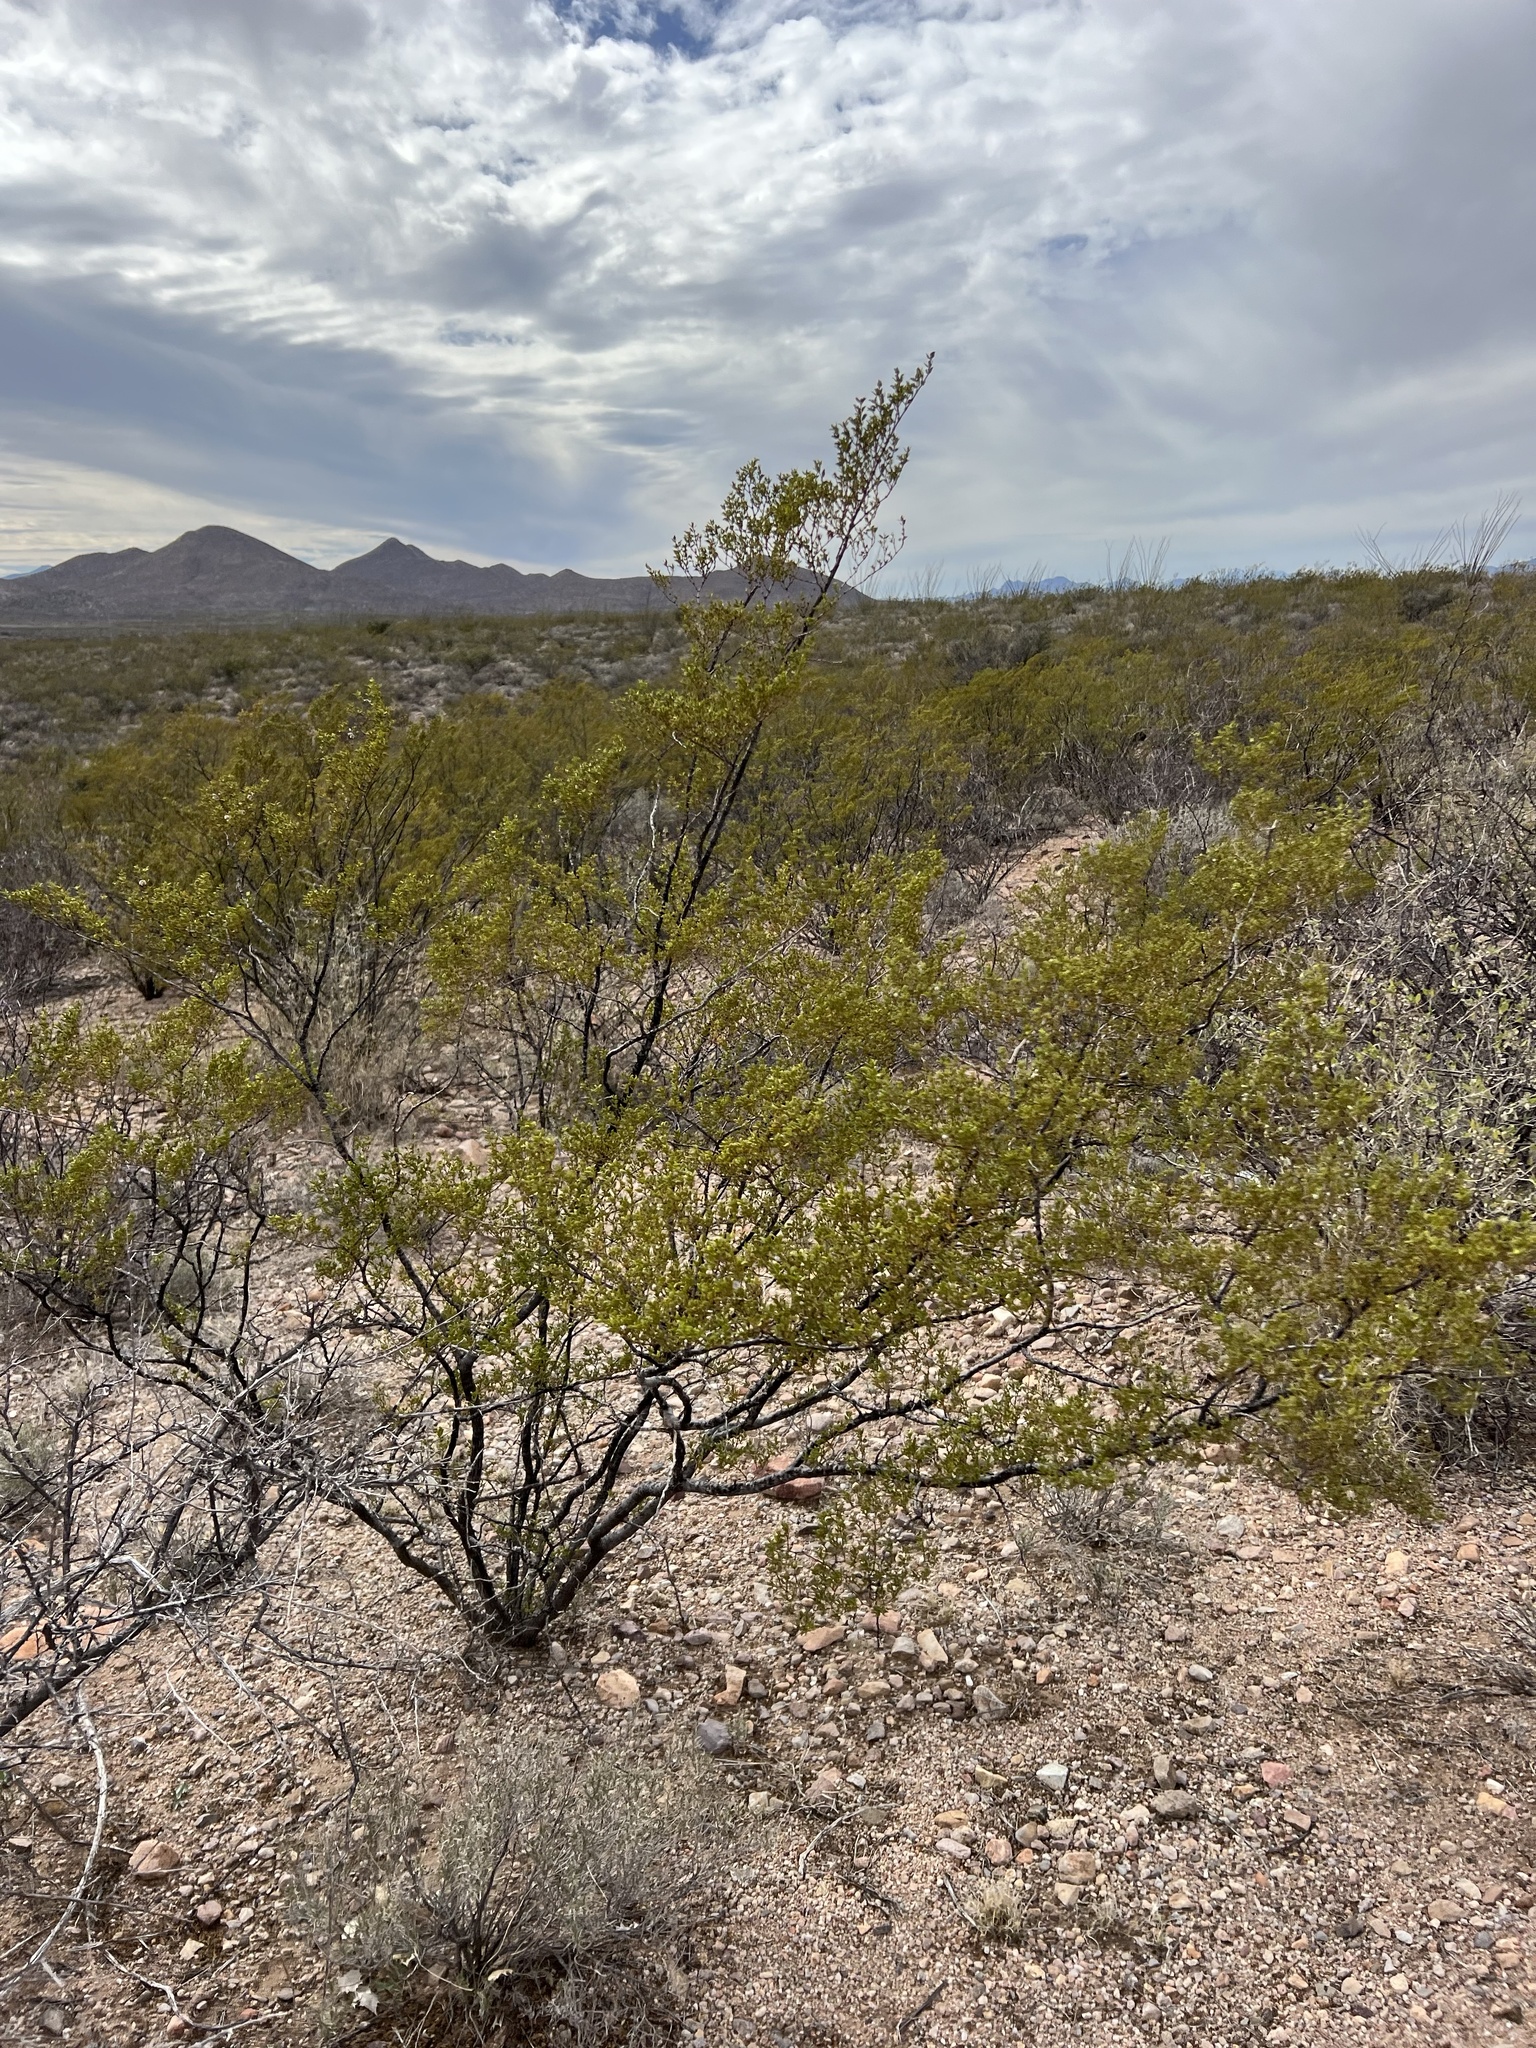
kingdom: Plantae
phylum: Tracheophyta
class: Magnoliopsida
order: Zygophyllales
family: Zygophyllaceae
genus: Larrea
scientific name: Larrea tridentata
